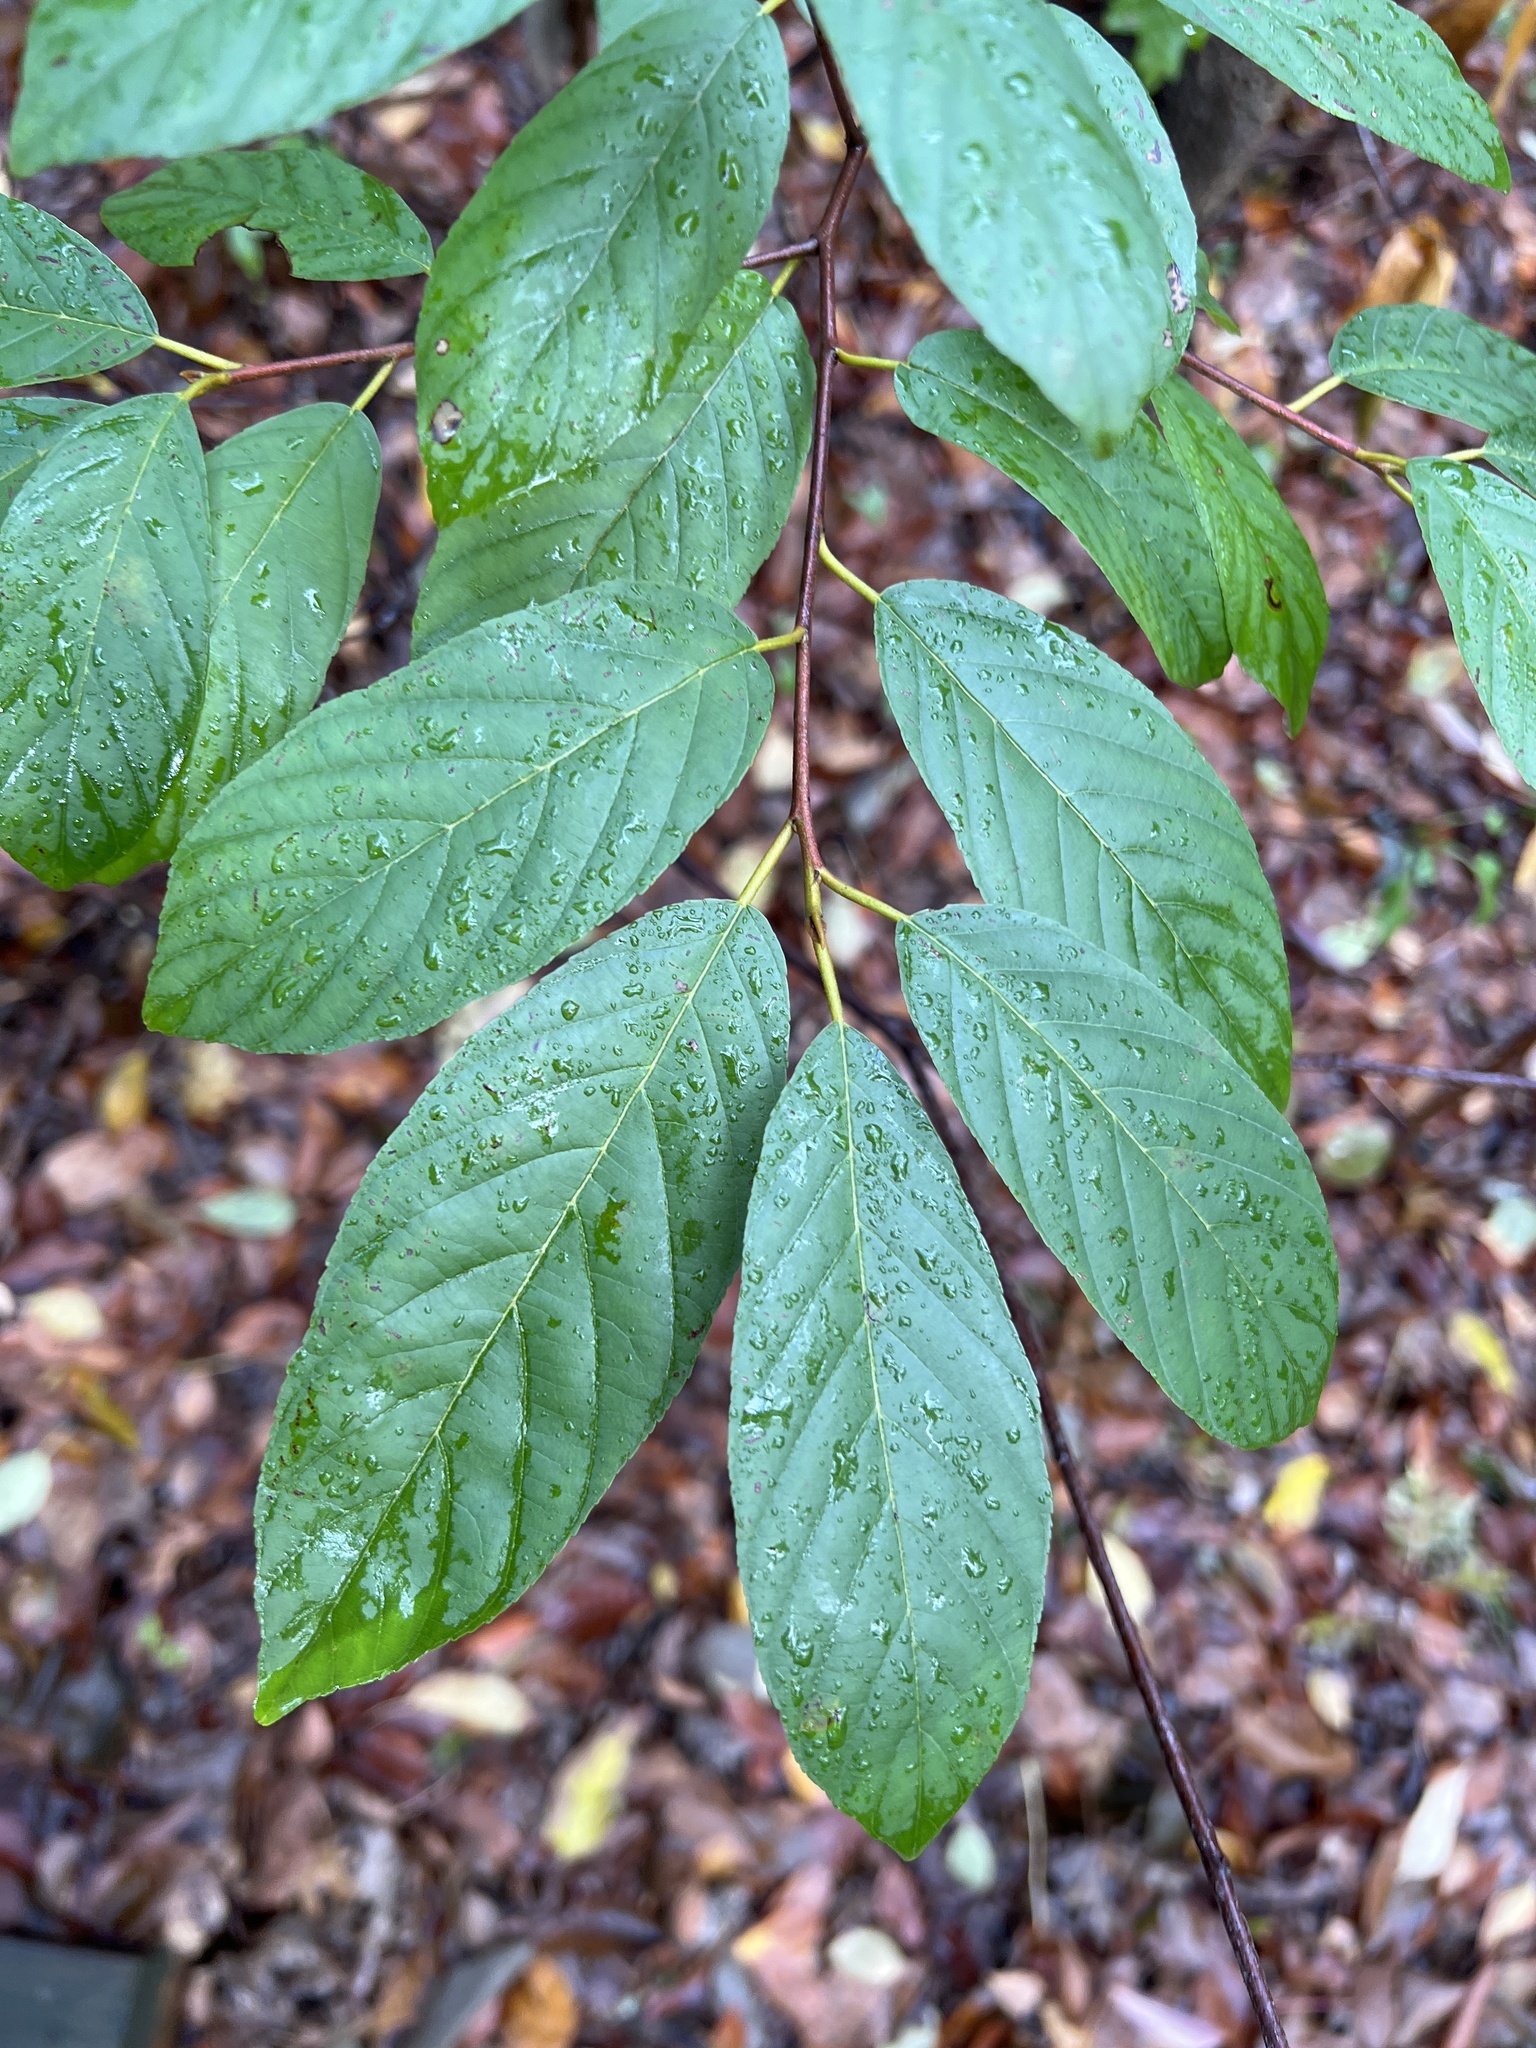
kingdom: Plantae
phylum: Tracheophyta
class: Magnoliopsida
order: Rosales
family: Rhamnaceae
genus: Frangula
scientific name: Frangula caroliniana
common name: Carolina buckthorn
